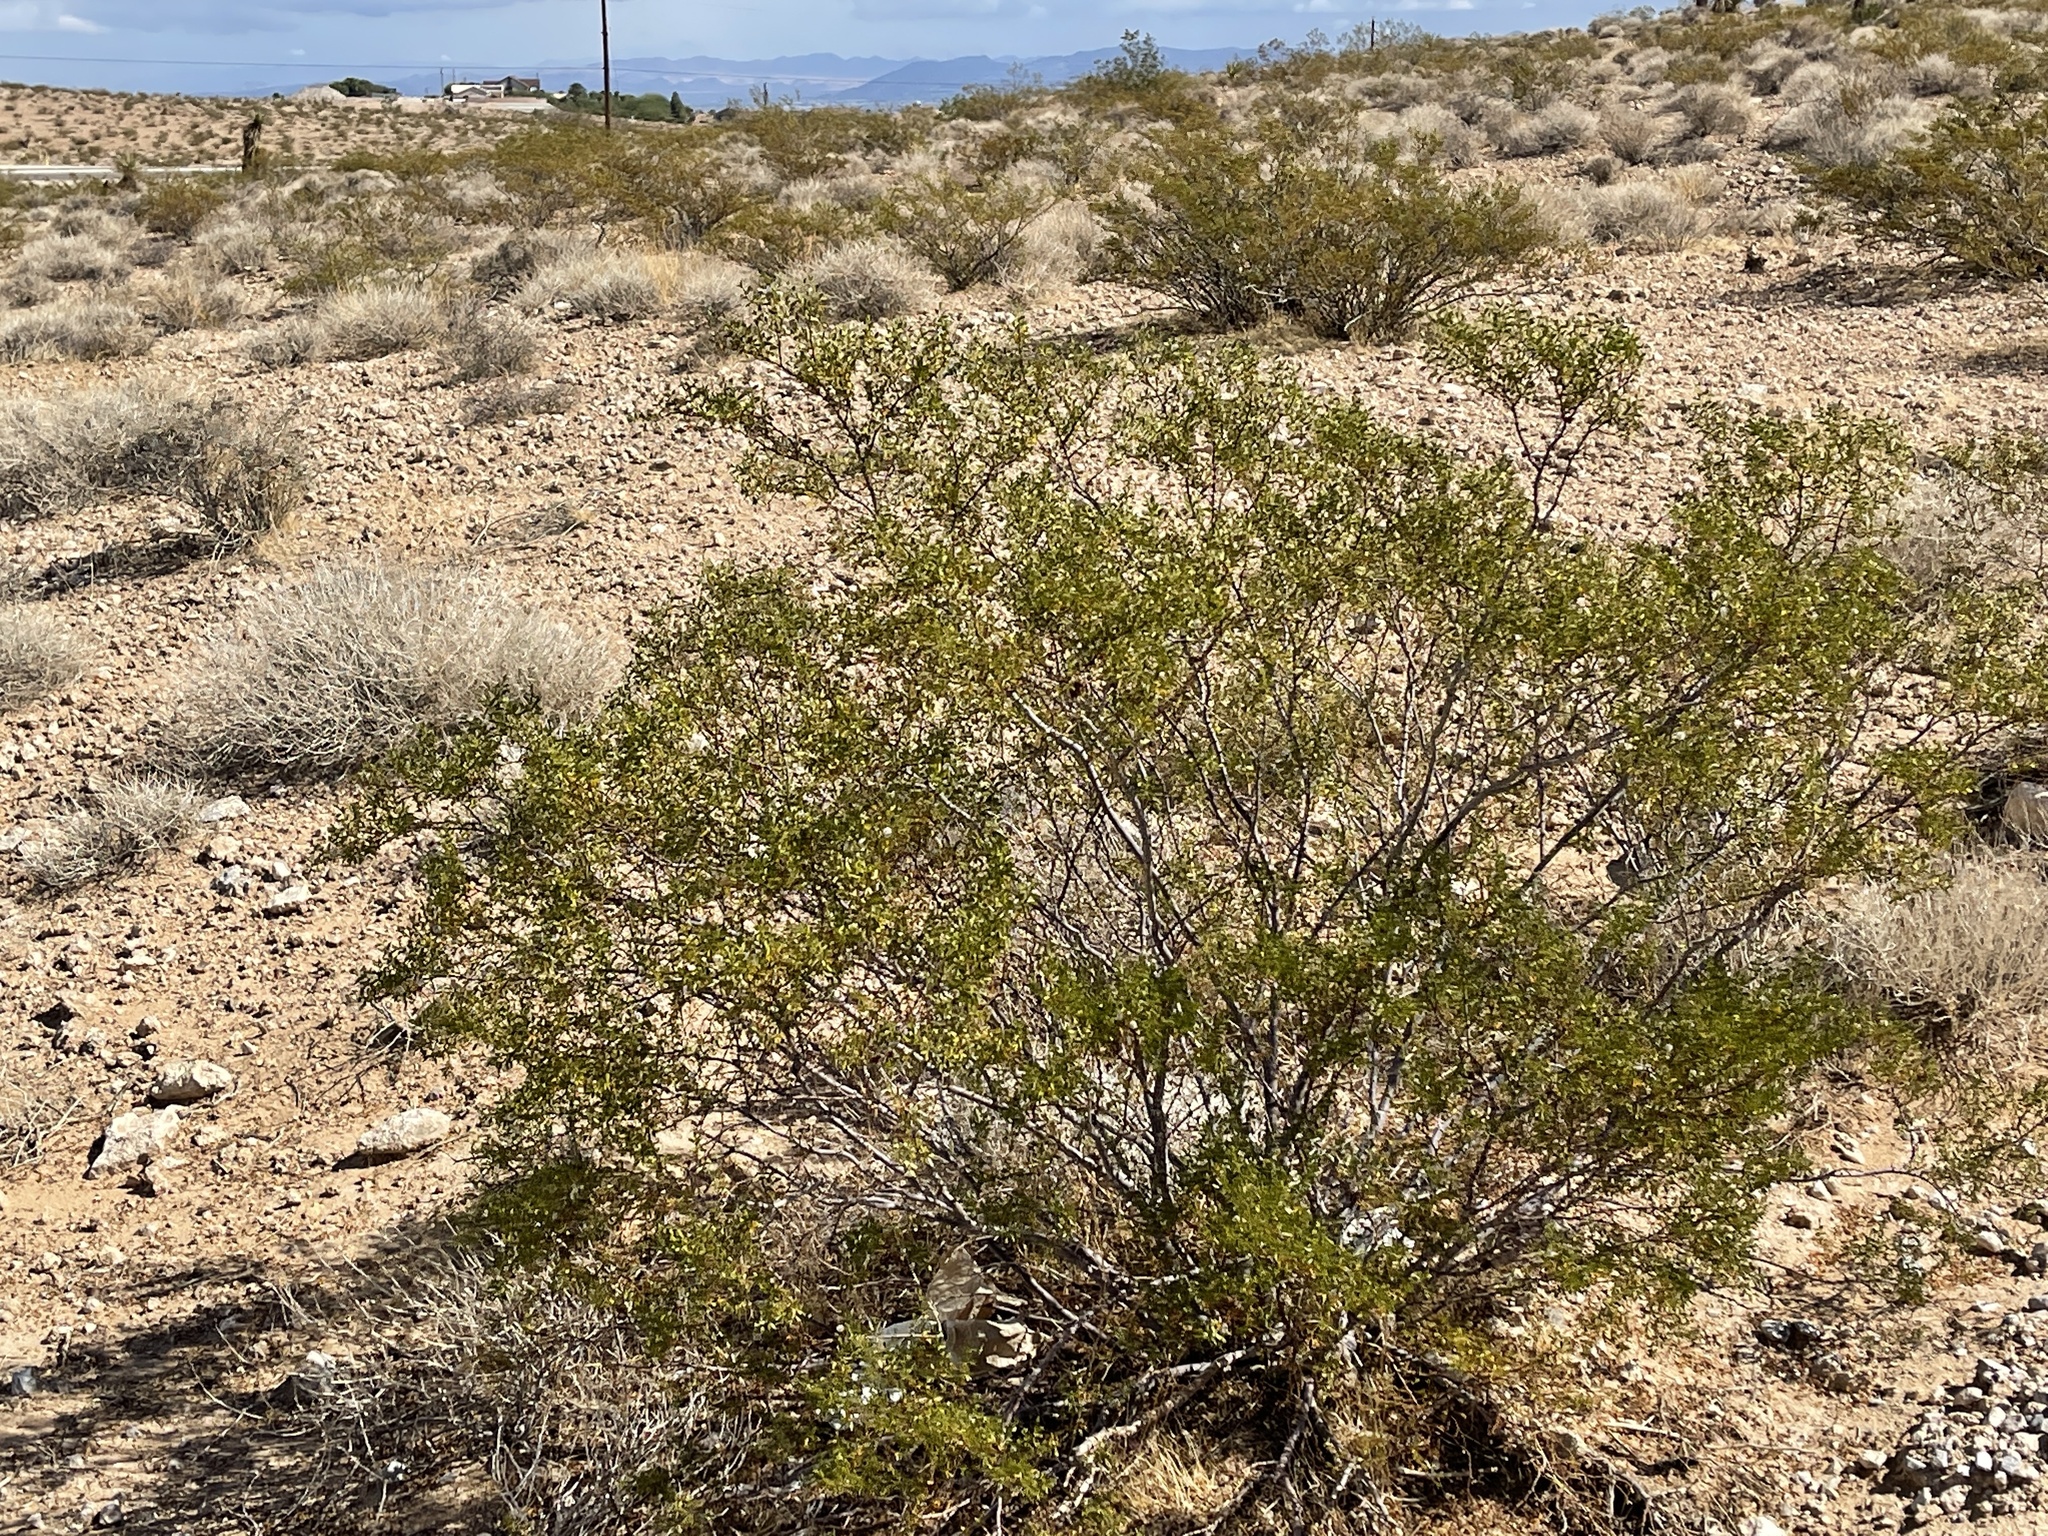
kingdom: Plantae
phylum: Tracheophyta
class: Magnoliopsida
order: Zygophyllales
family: Zygophyllaceae
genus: Larrea
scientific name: Larrea tridentata
